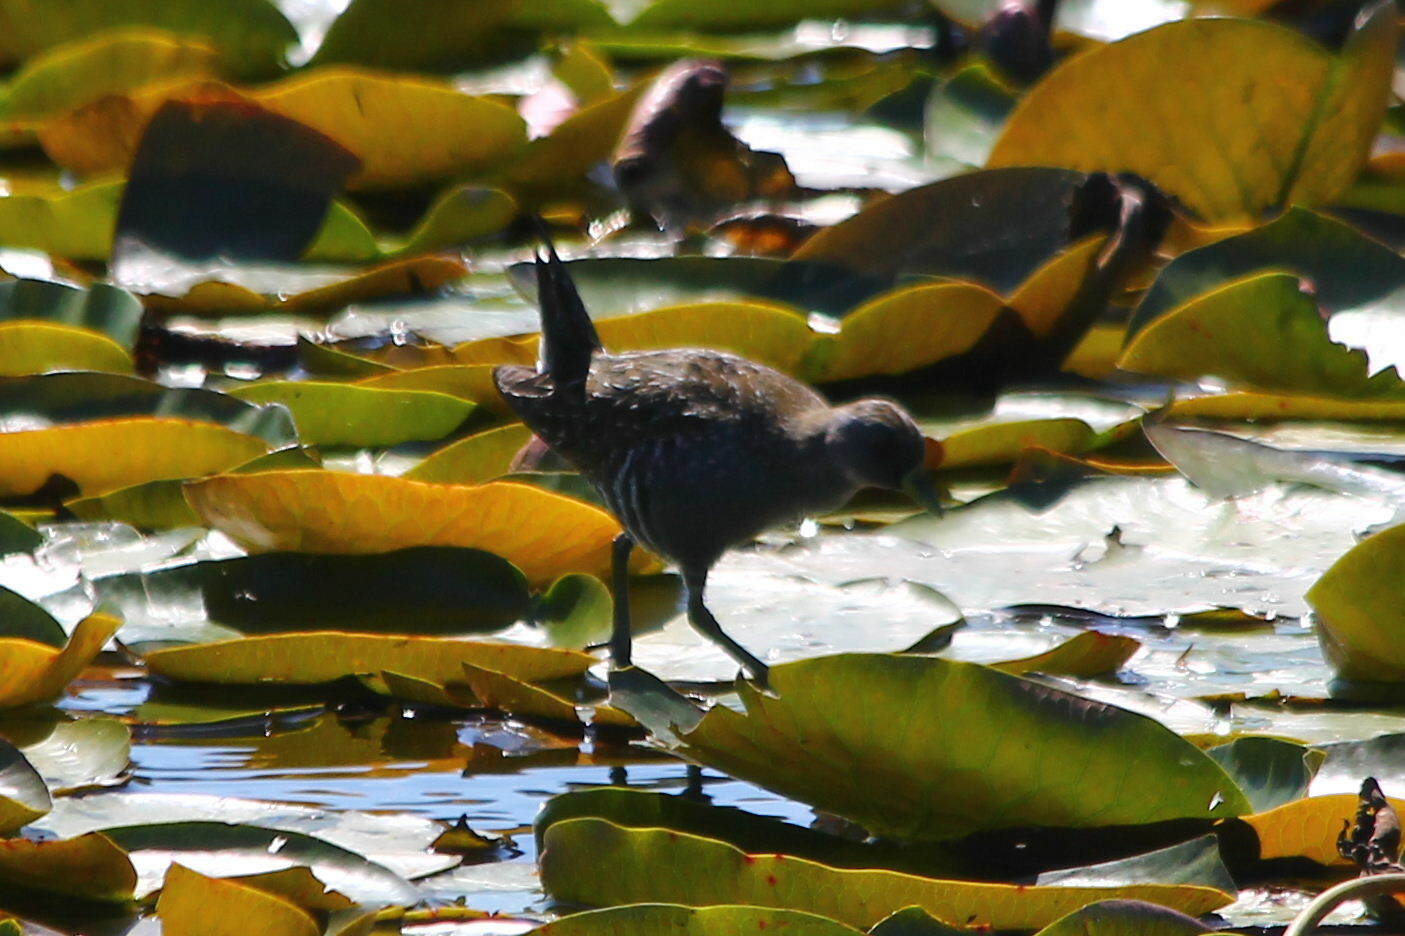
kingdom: Animalia
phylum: Chordata
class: Aves
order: Gruiformes
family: Rallidae
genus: Porzana
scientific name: Porzana fluminea
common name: Australian crake
